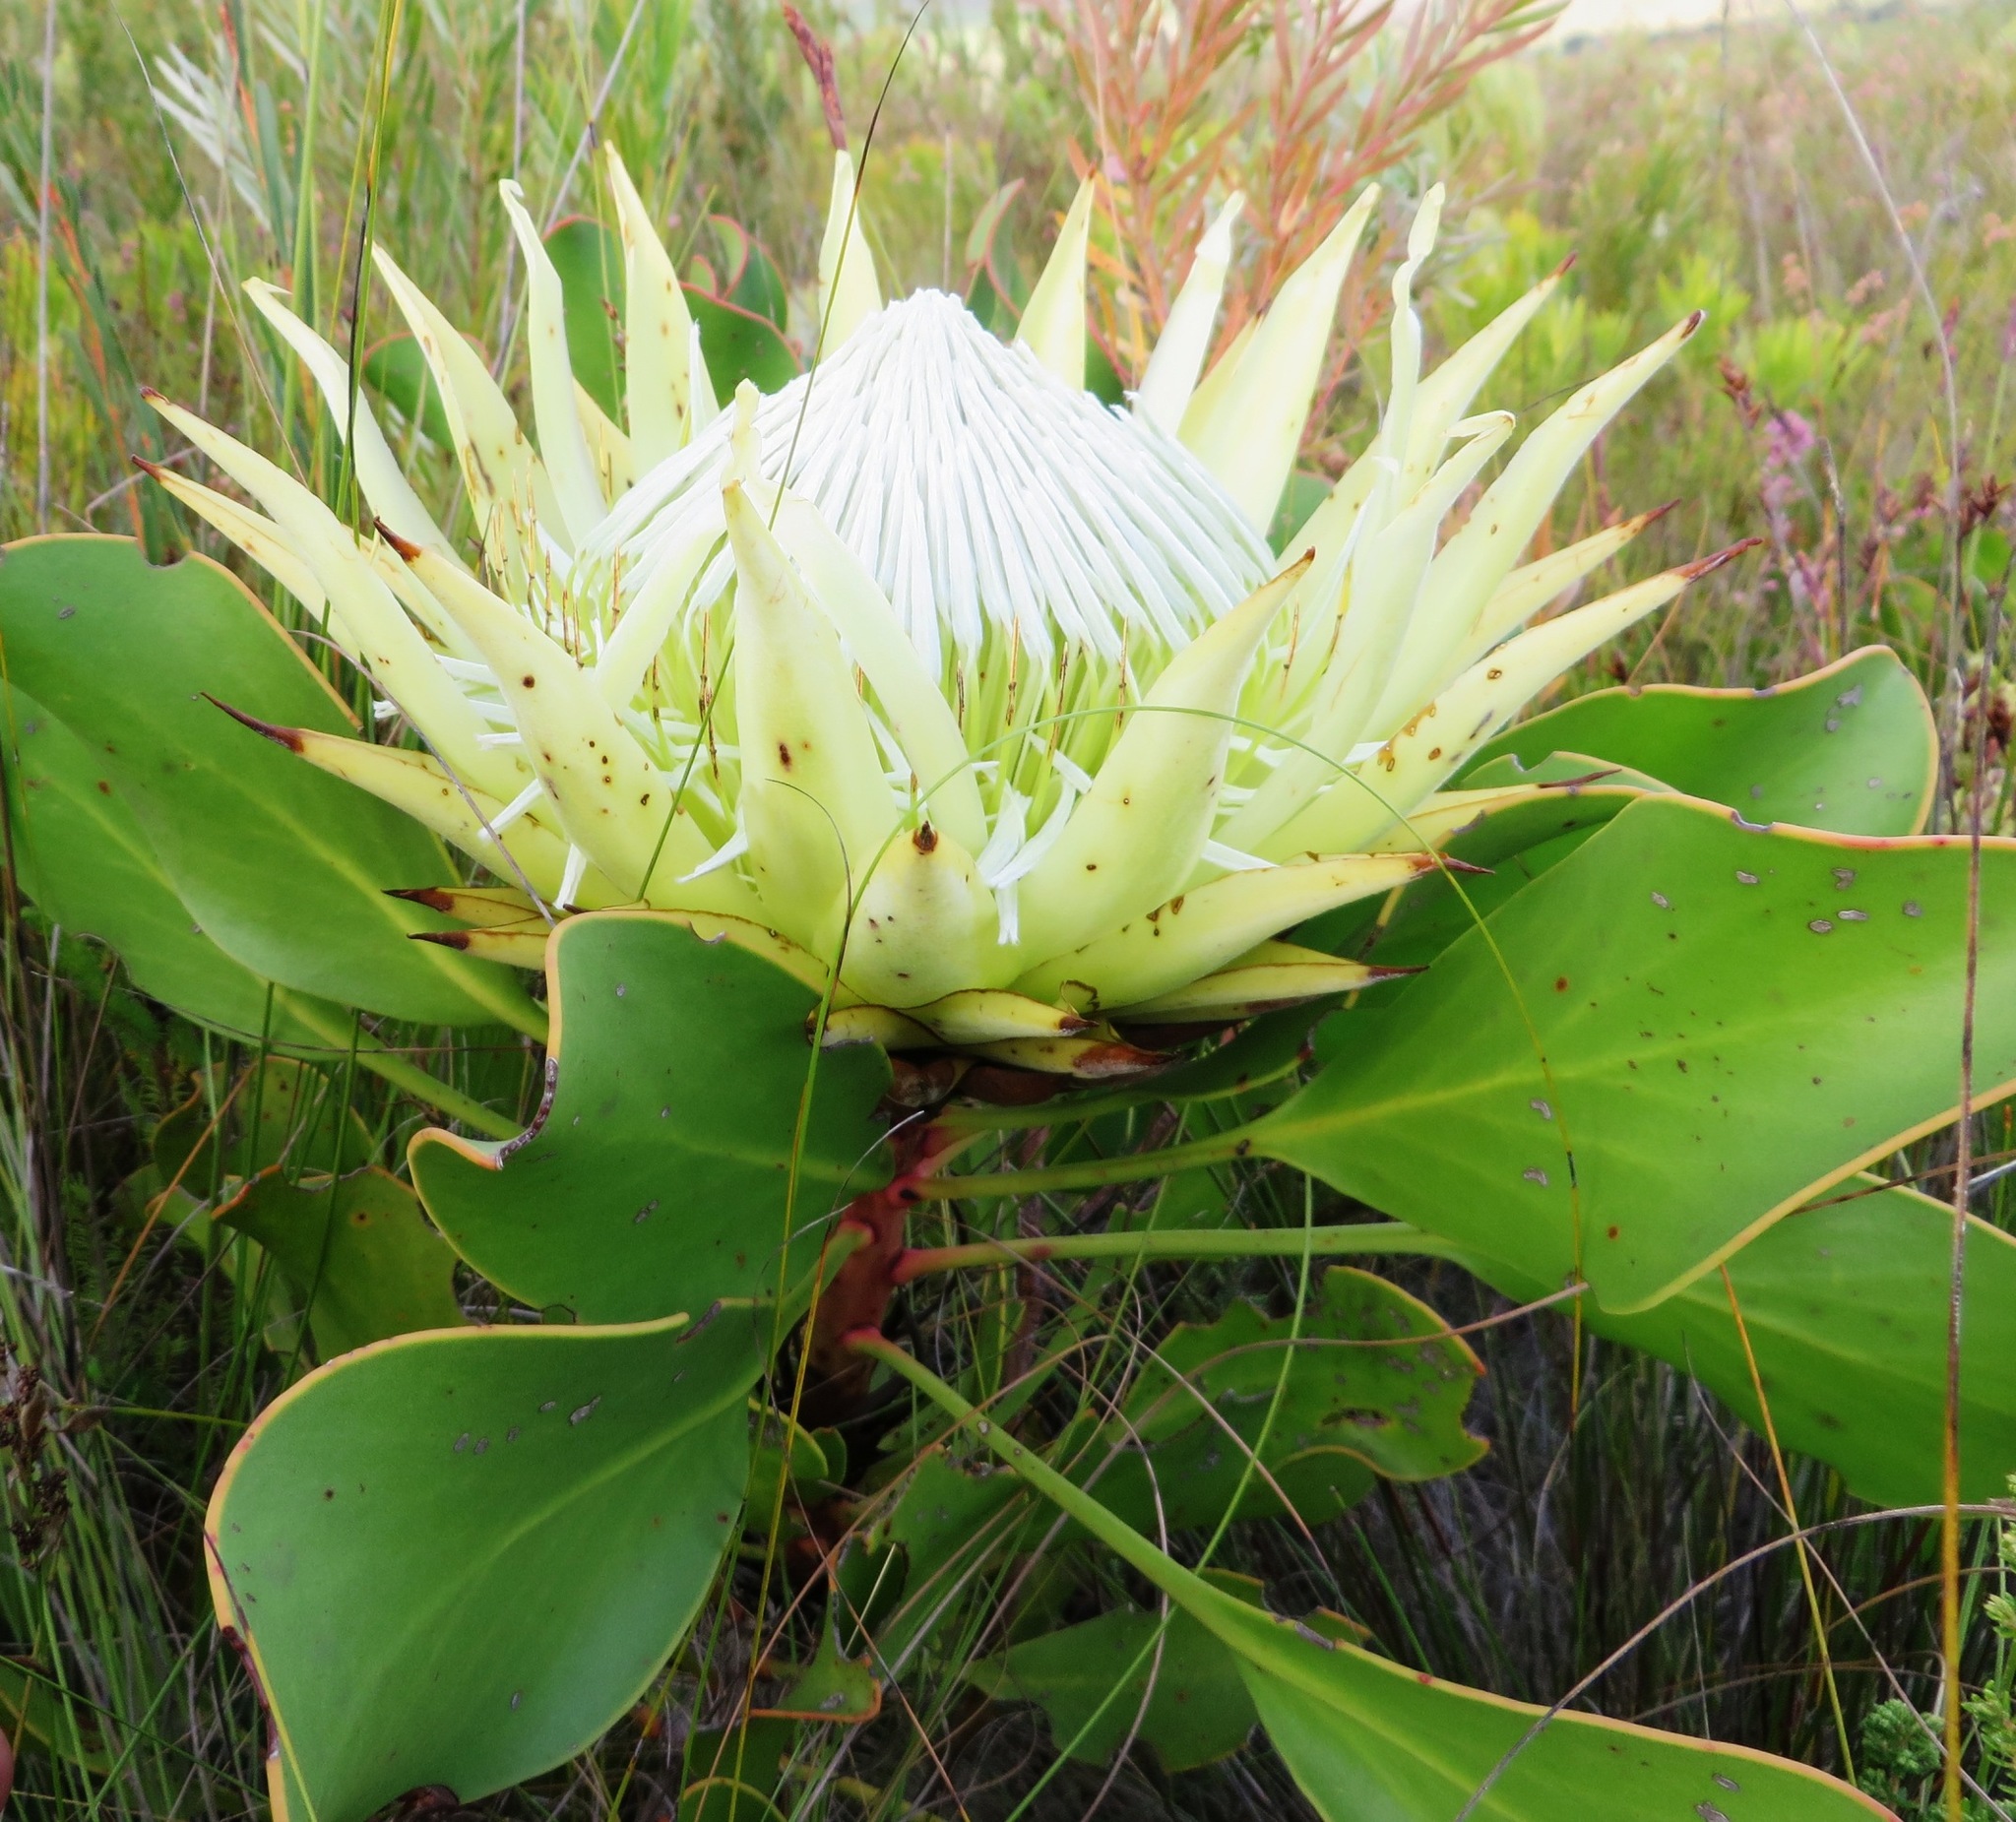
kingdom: Plantae
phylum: Tracheophyta
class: Magnoliopsida
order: Proteales
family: Proteaceae
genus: Protea
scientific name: Protea cynaroides
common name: King protea
